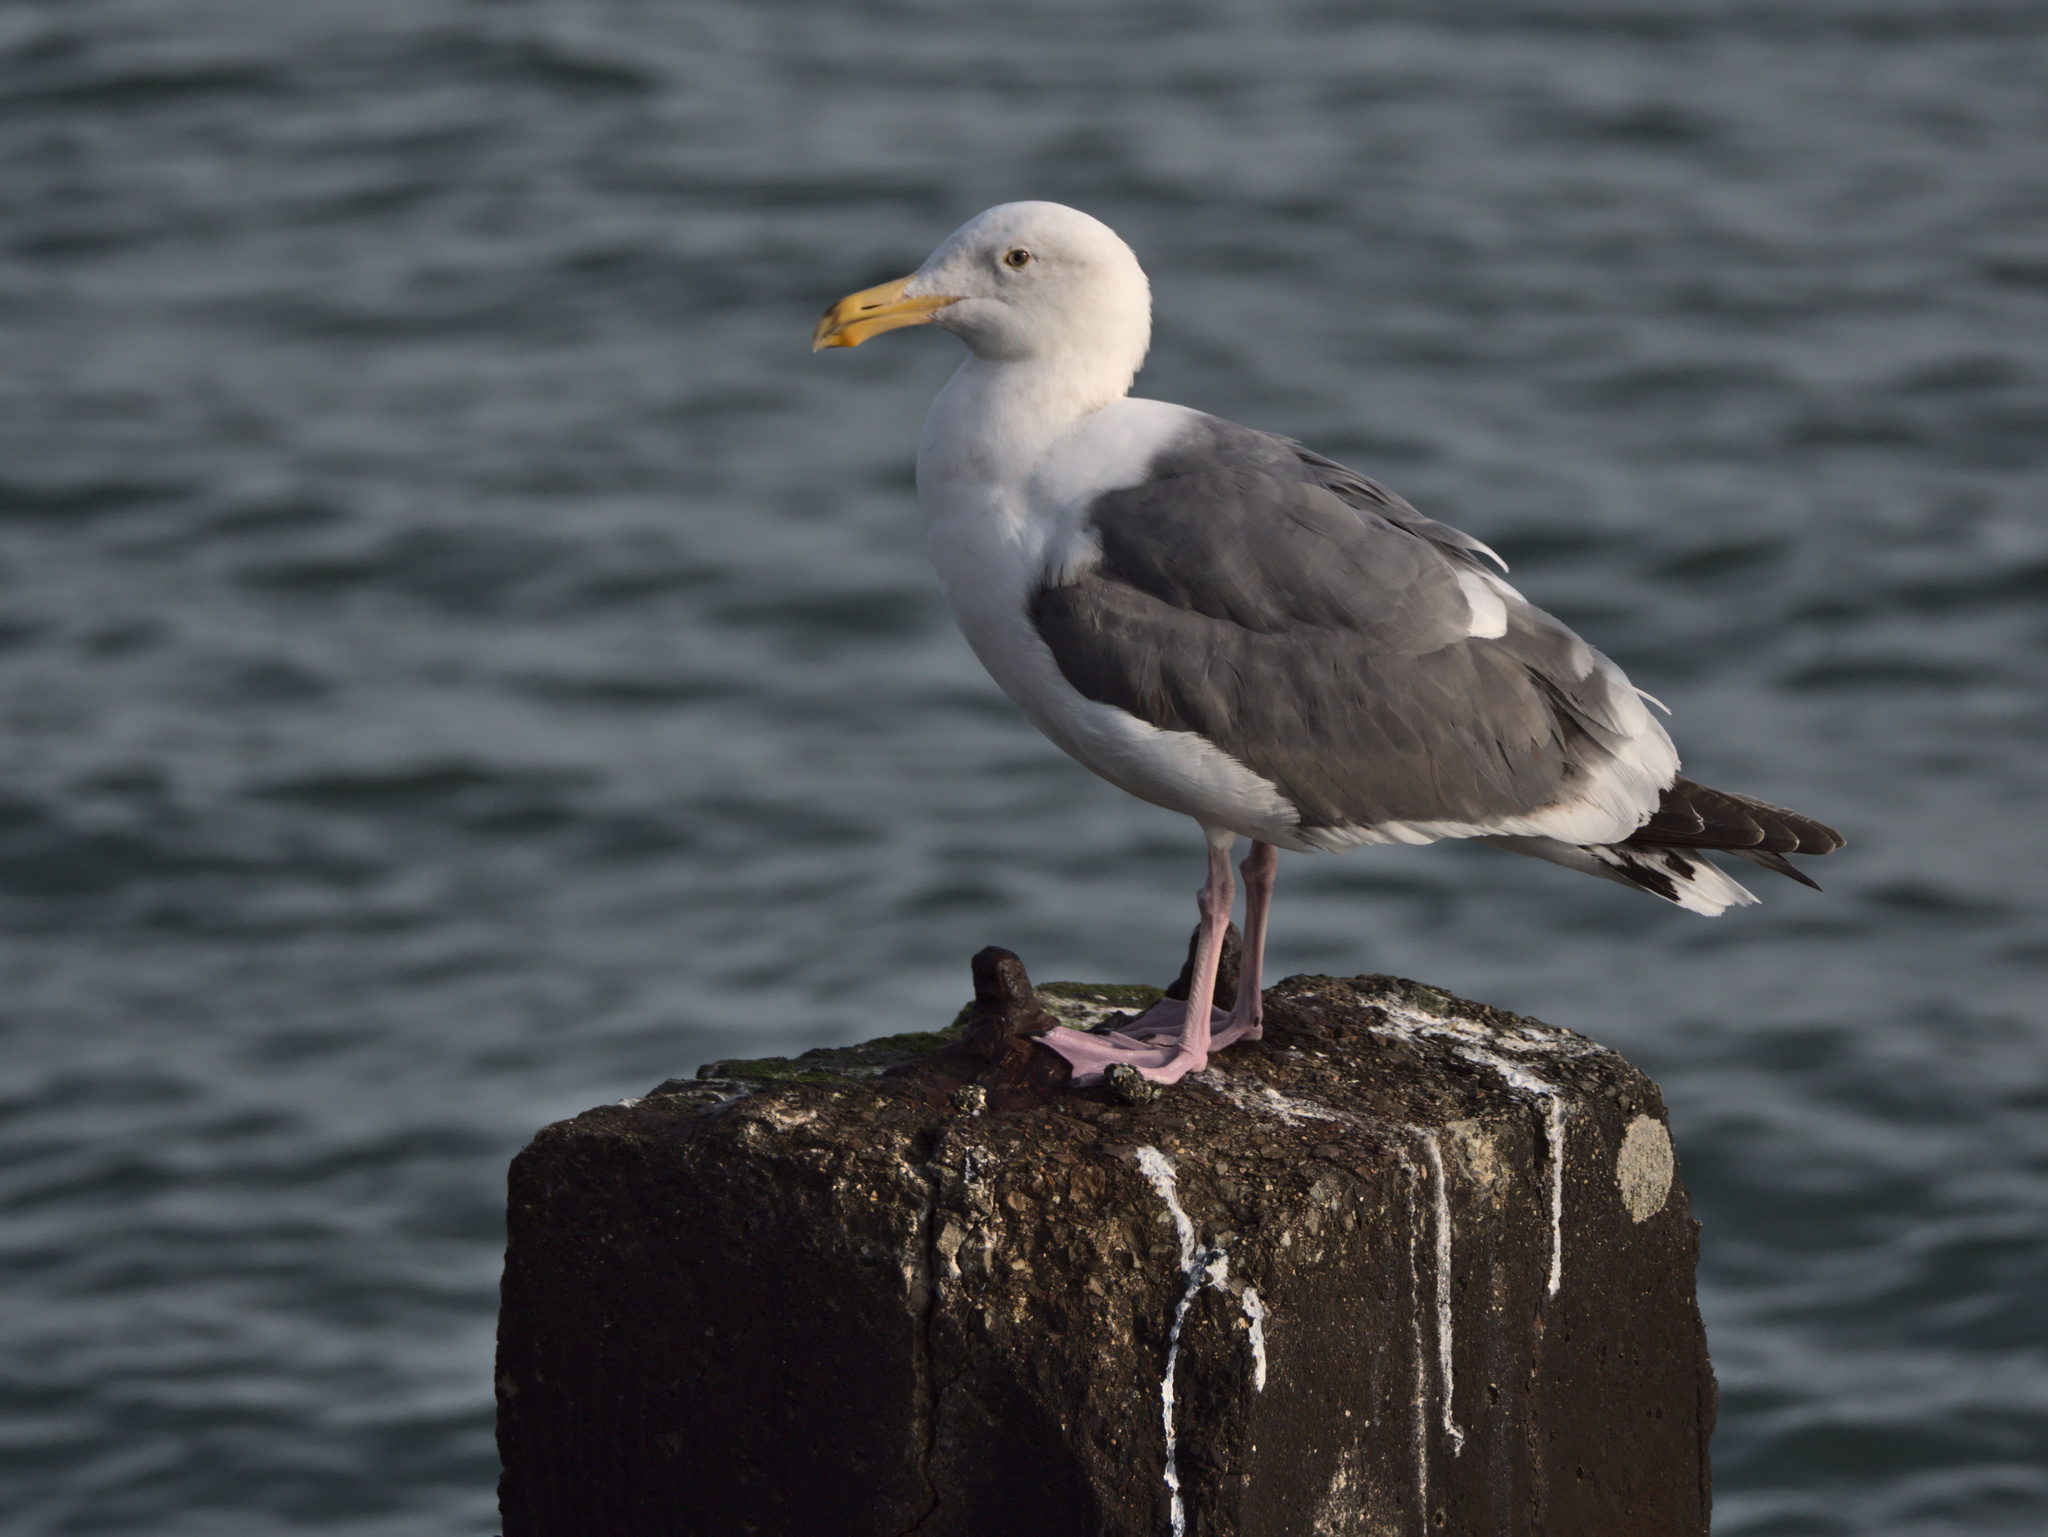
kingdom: Animalia
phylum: Chordata
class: Aves
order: Charadriiformes
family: Laridae
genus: Larus
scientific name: Larus occidentalis
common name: Western gull
